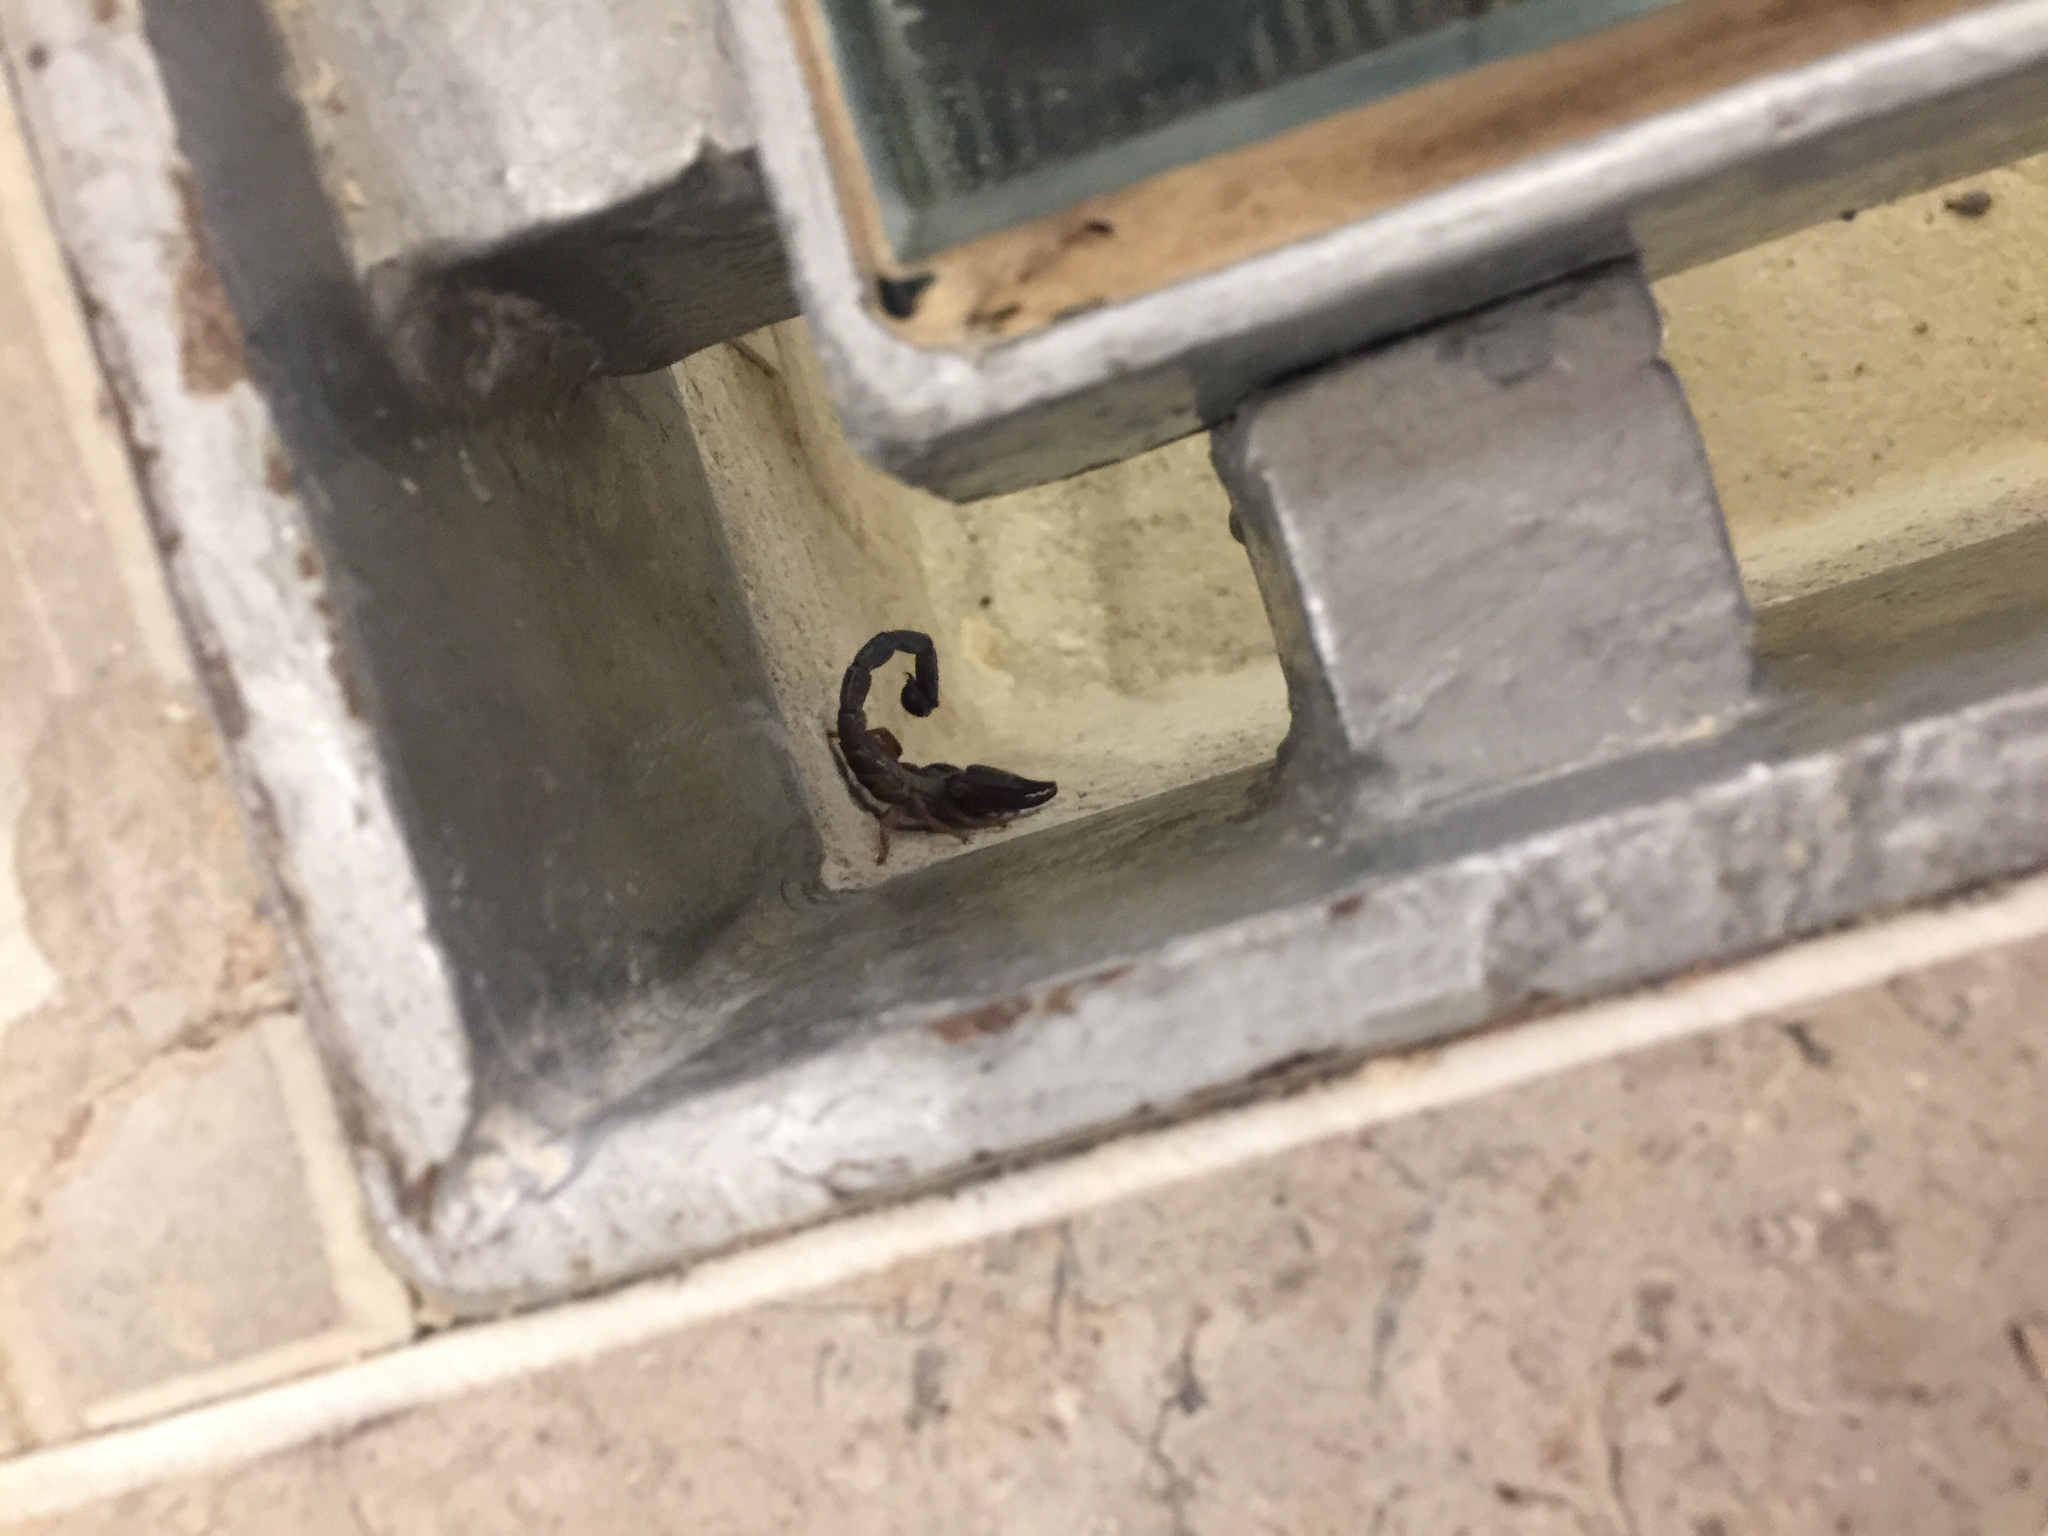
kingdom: Animalia
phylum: Arthropoda
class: Arachnida
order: Scorpiones
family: Diplocentridae
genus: Nebo
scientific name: Nebo hierichonticus
